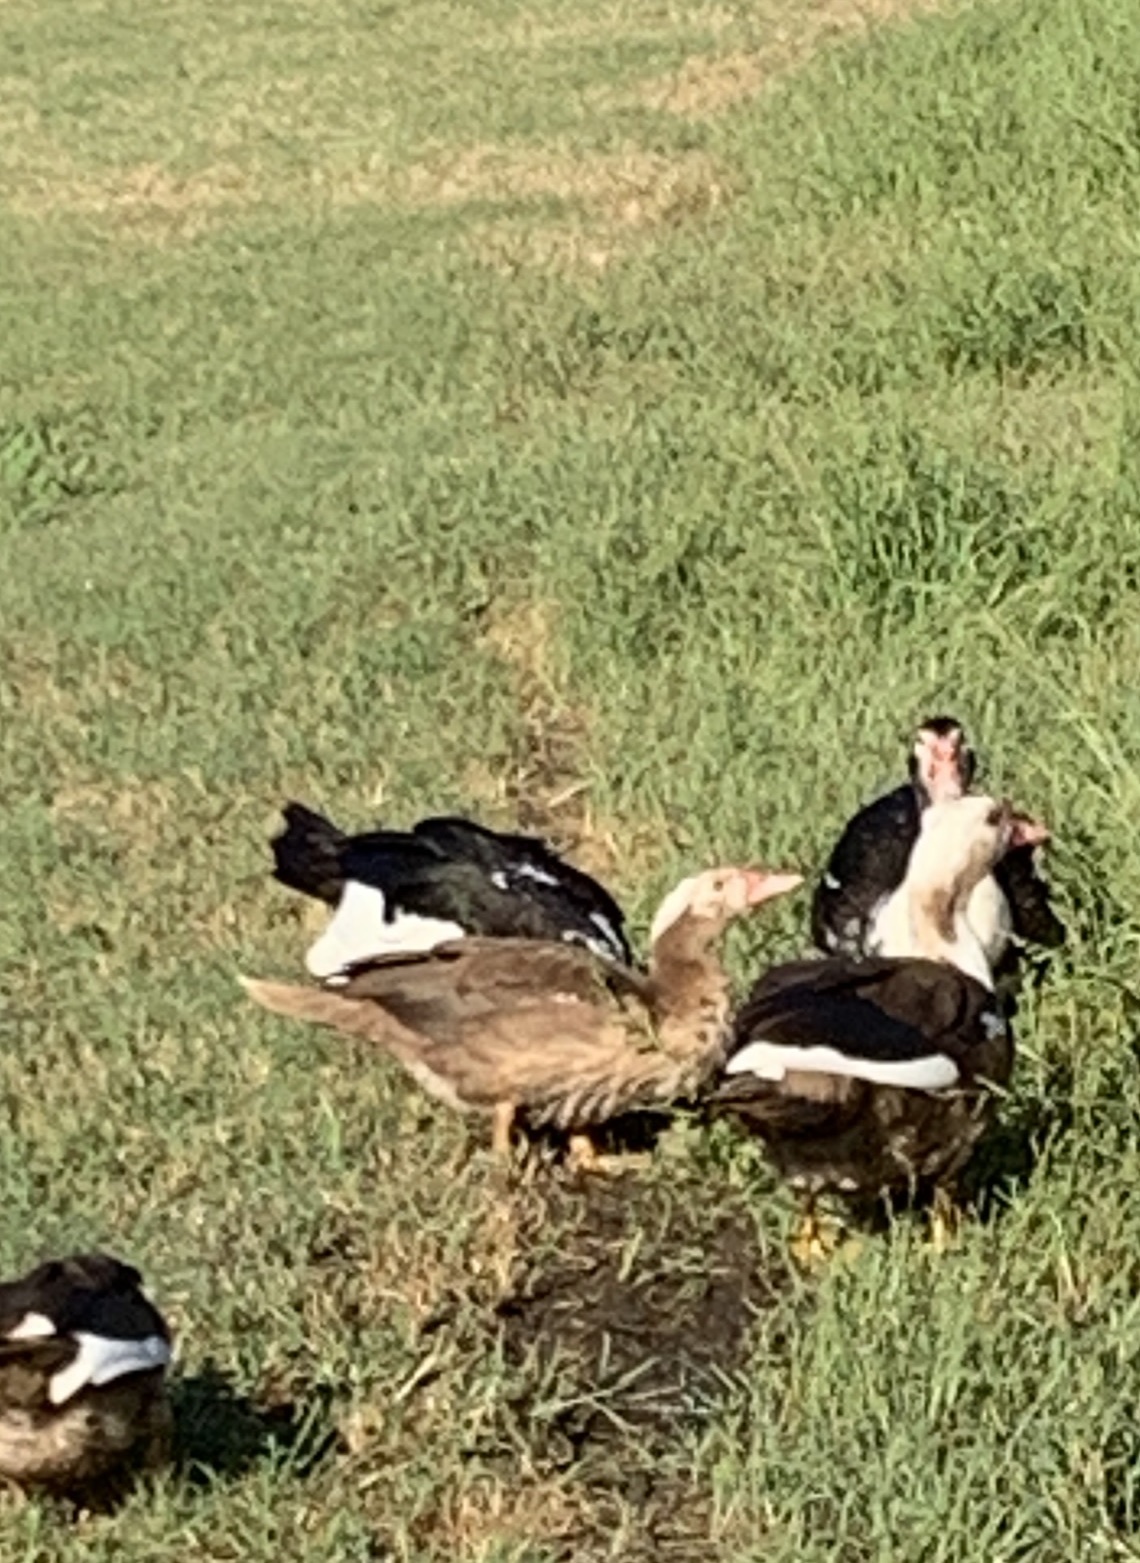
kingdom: Animalia
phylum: Chordata
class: Aves
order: Anseriformes
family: Anatidae
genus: Cairina
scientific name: Cairina moschata
